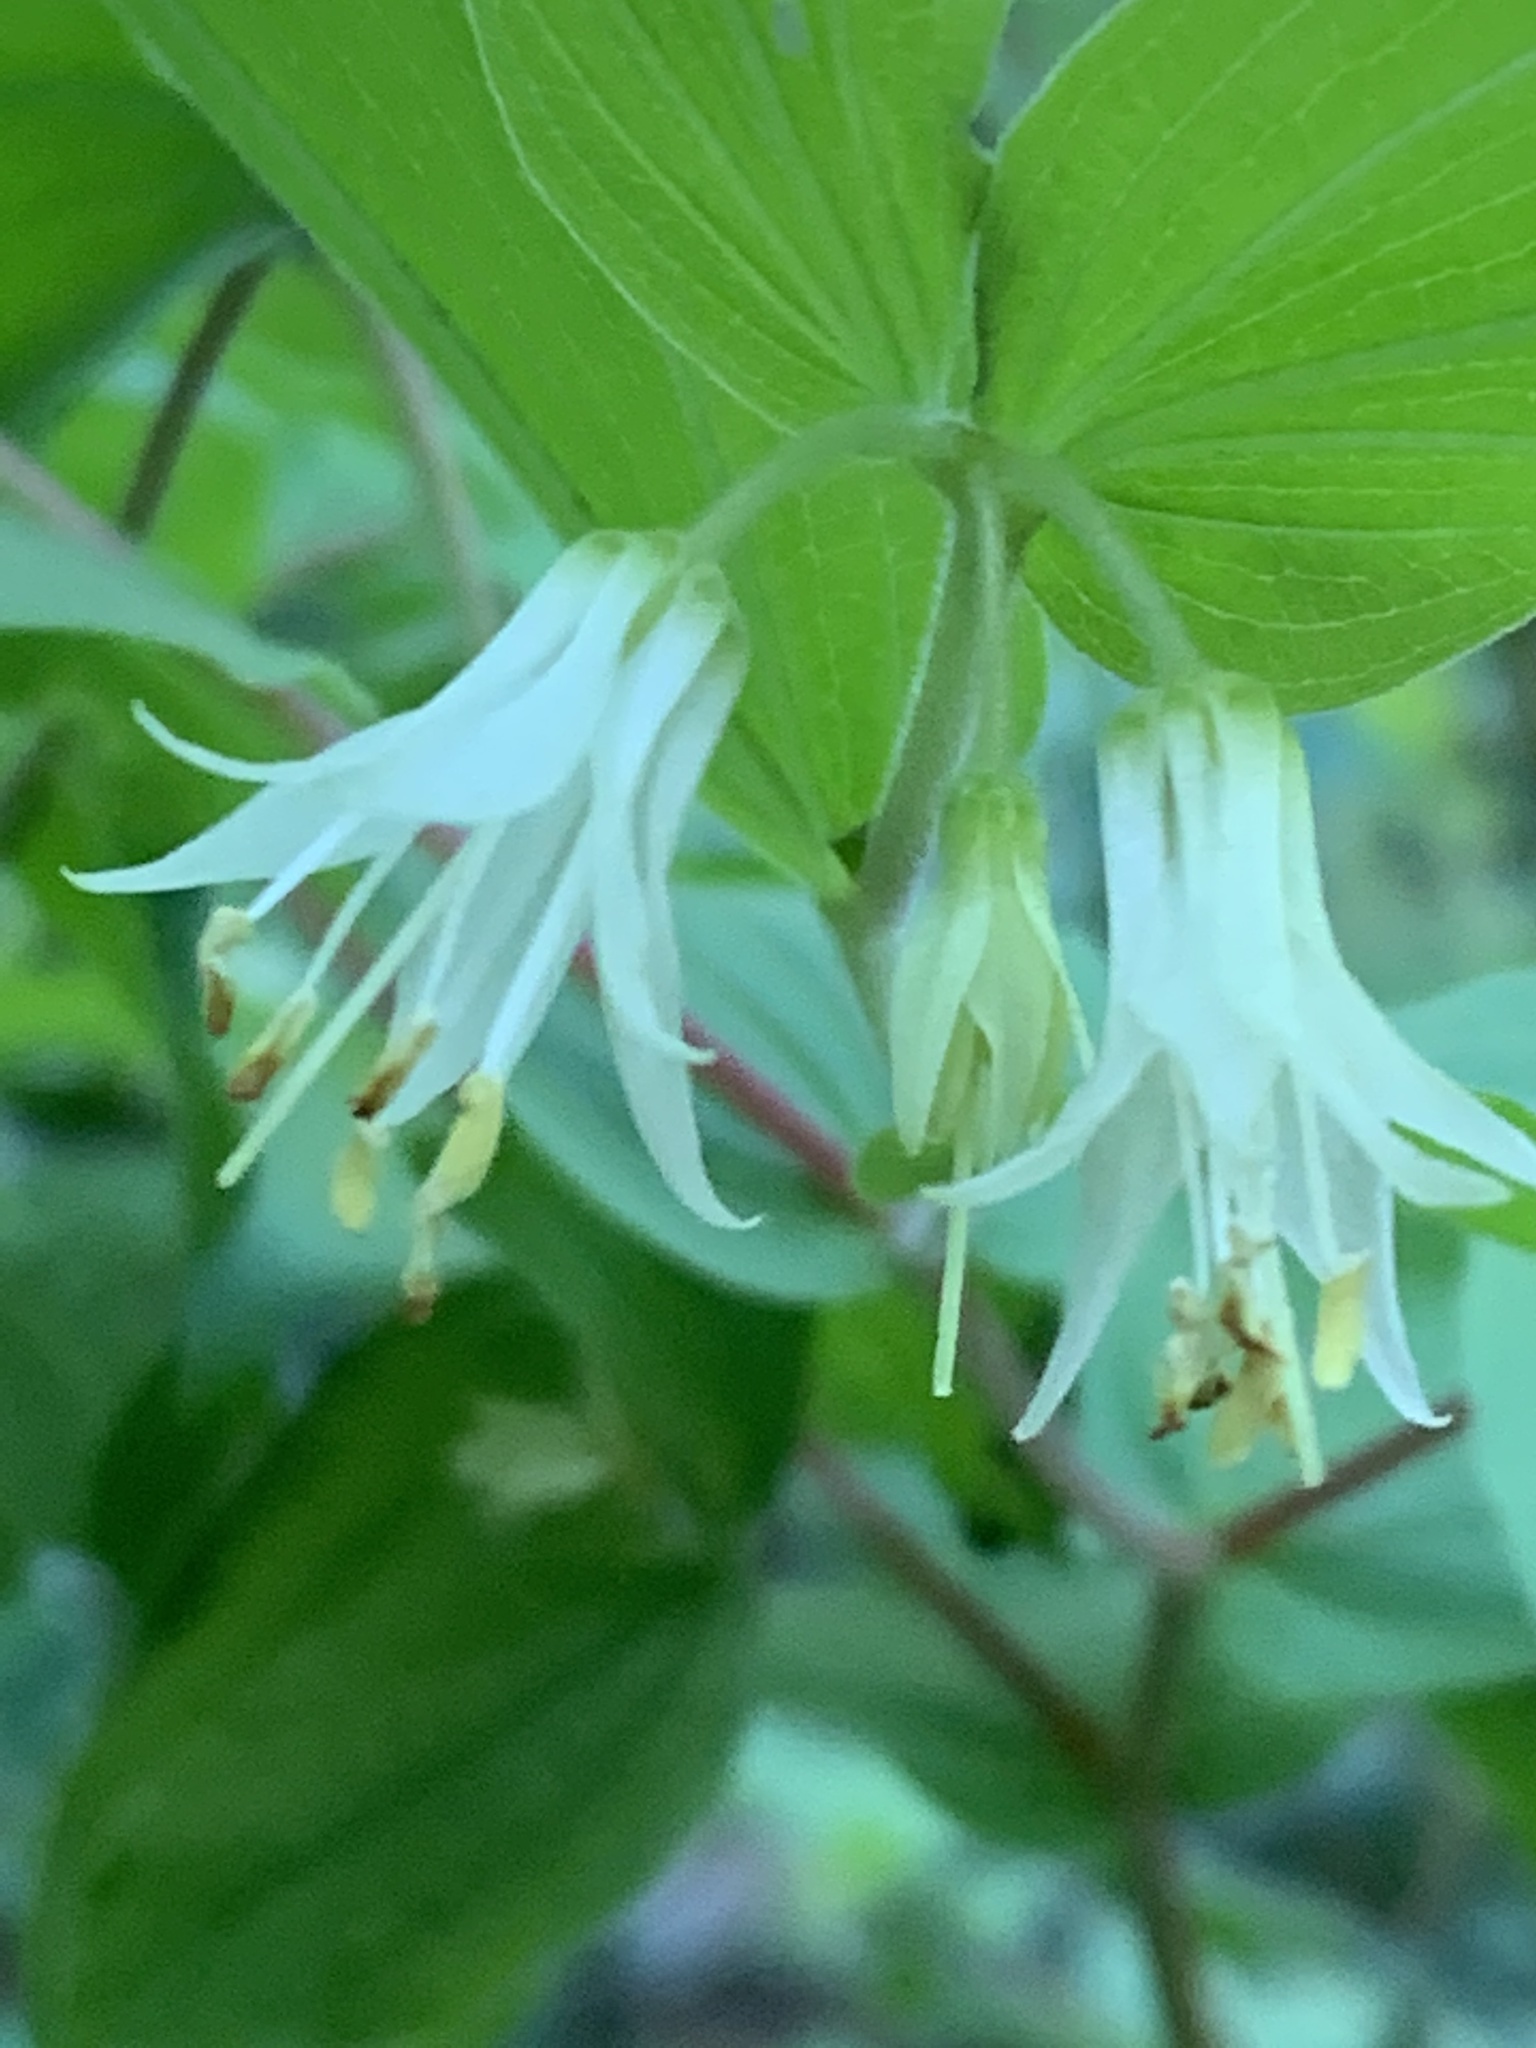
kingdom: Plantae
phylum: Tracheophyta
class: Liliopsida
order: Liliales
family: Liliaceae
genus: Prosartes
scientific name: Prosartes hookeri
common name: Fairy-bells
